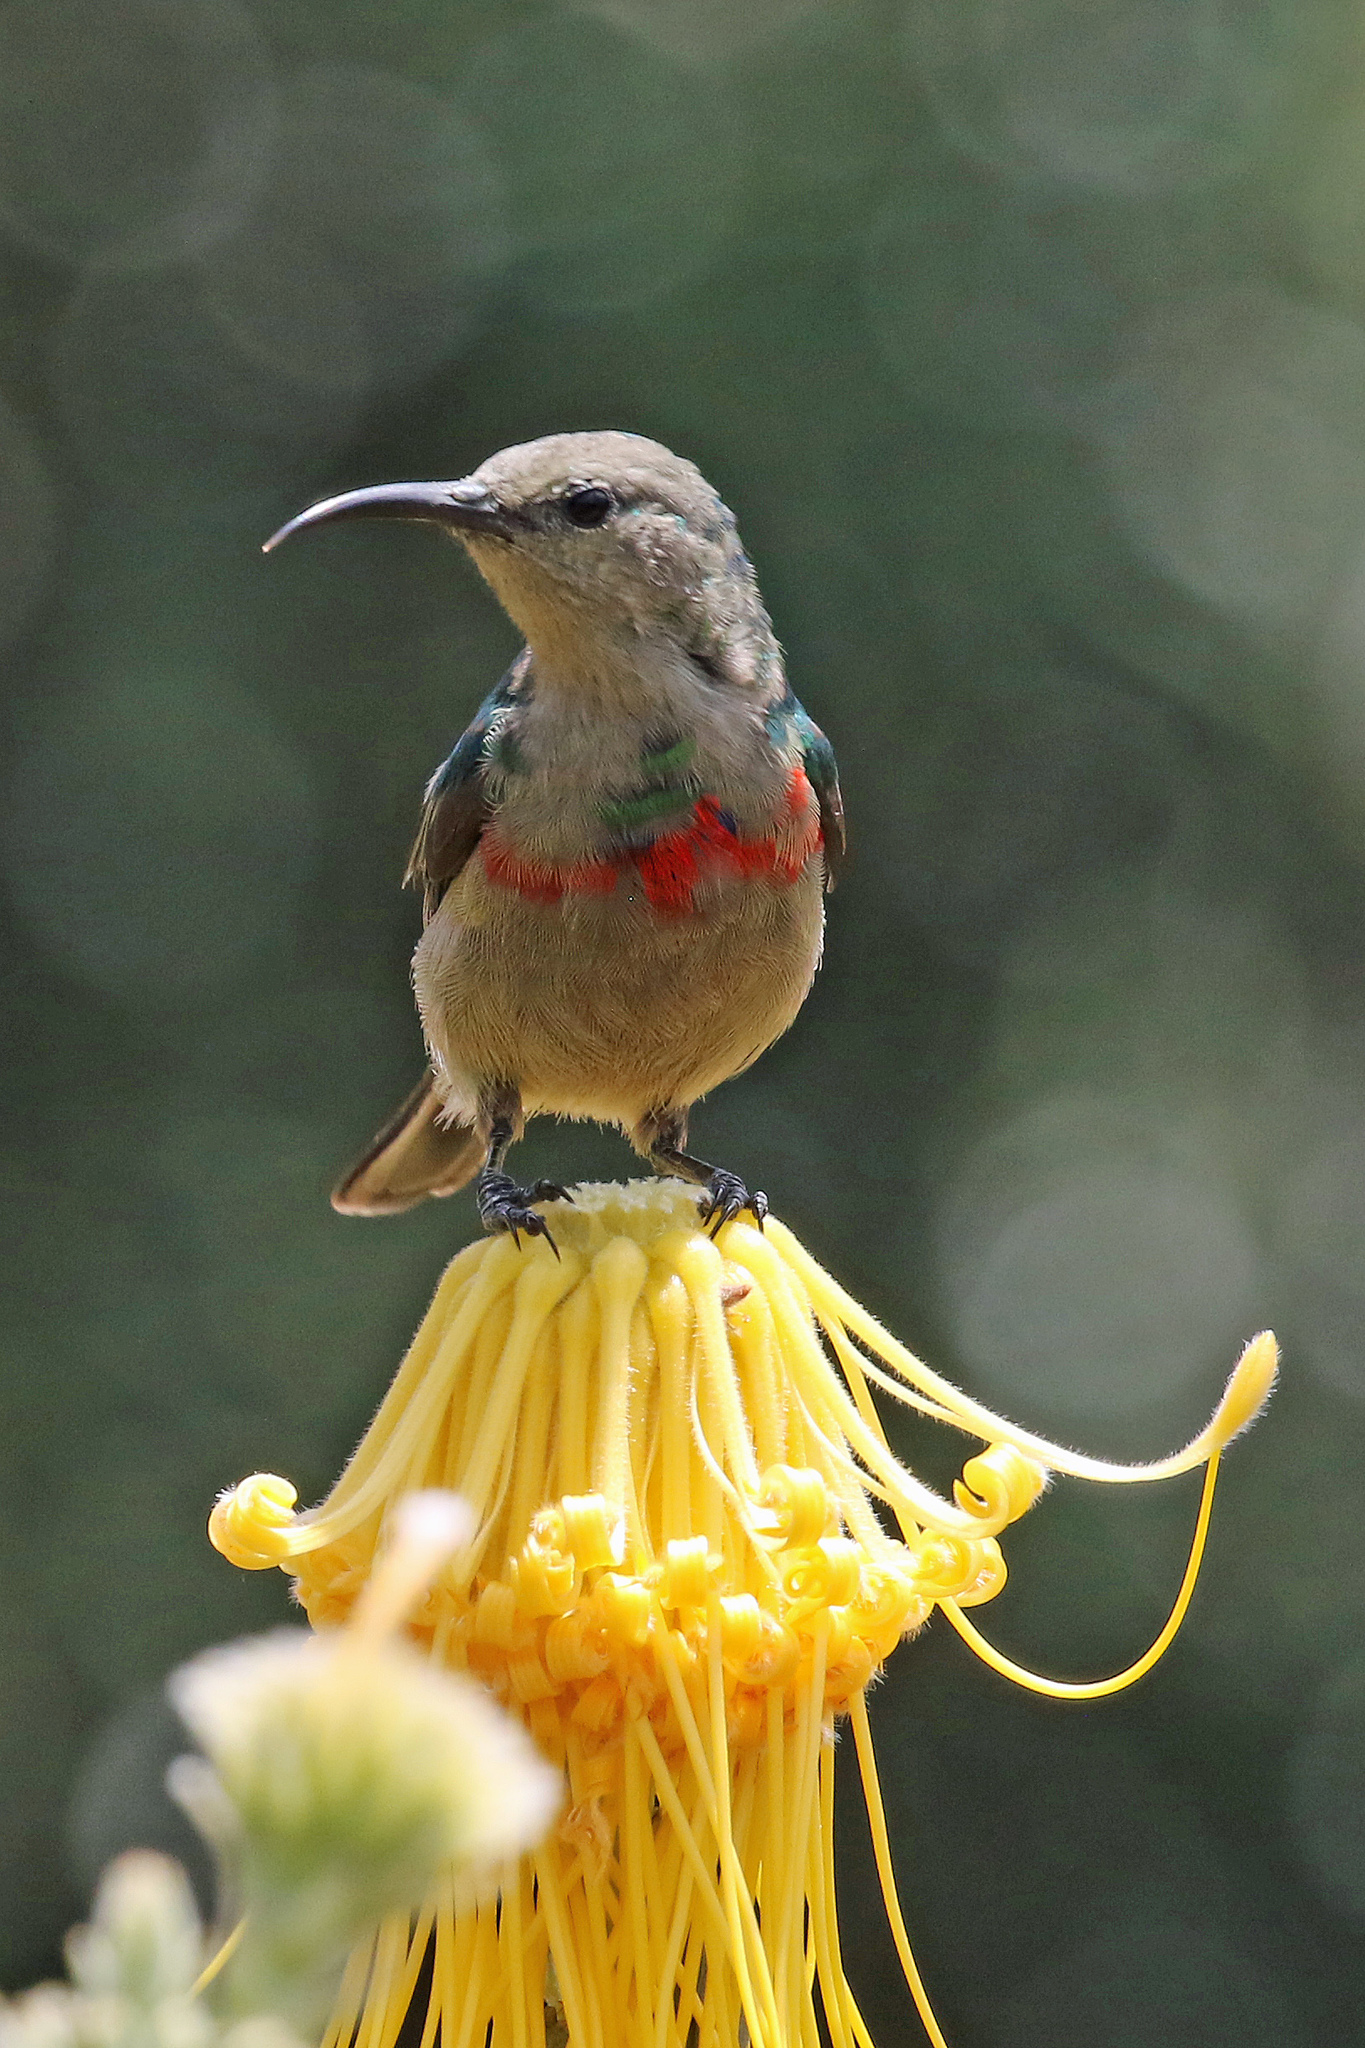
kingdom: Animalia
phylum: Chordata
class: Aves
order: Passeriformes
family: Nectariniidae
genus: Cinnyris
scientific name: Cinnyris chalybeus
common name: Southern double-collared sunbird
